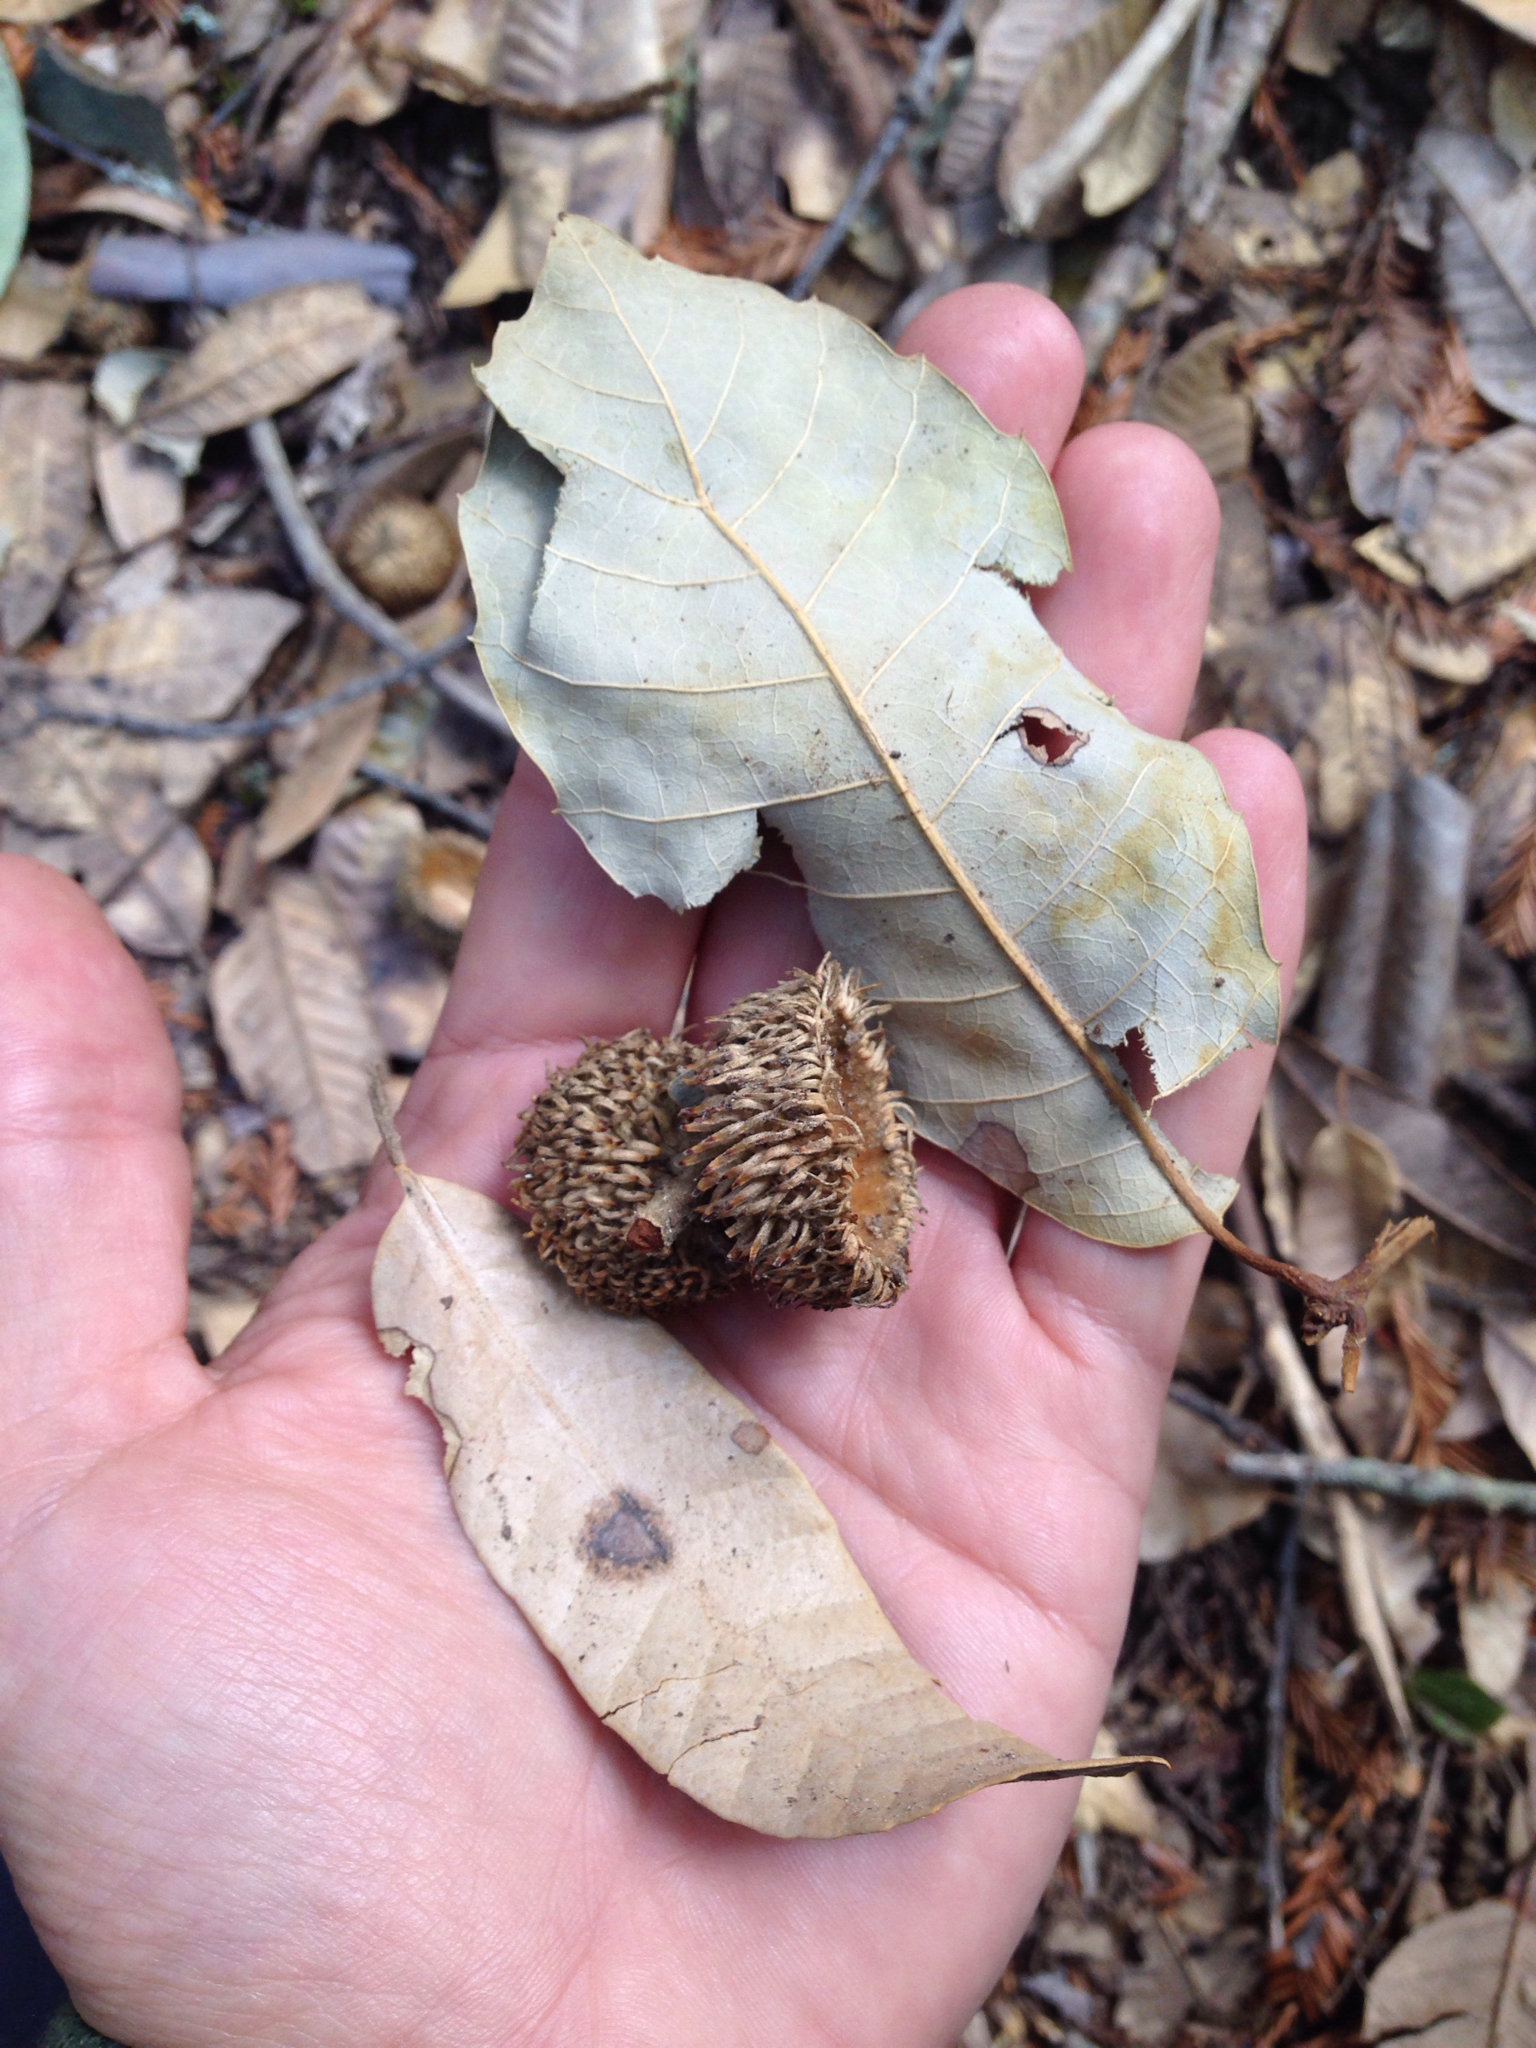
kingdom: Plantae
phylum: Tracheophyta
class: Magnoliopsida
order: Fagales
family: Fagaceae
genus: Notholithocarpus
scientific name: Notholithocarpus densiflorus
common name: Tan bark oak
